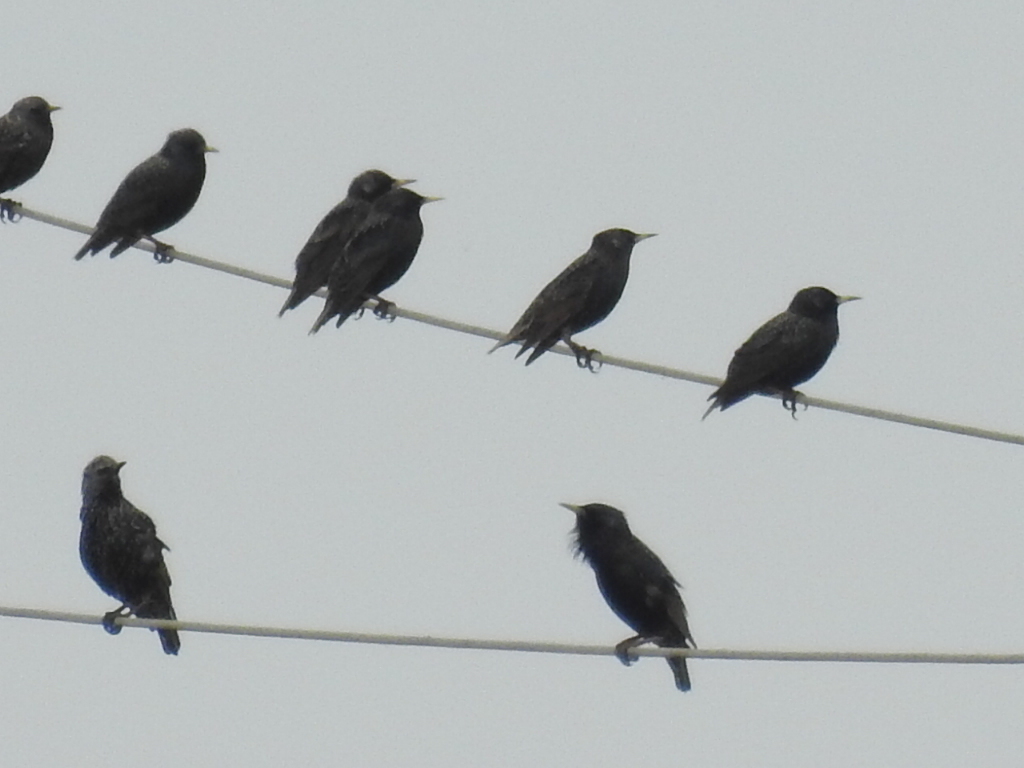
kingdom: Animalia
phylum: Chordata
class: Aves
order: Passeriformes
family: Sturnidae
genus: Sturnus
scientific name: Sturnus vulgaris
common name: Common starling
